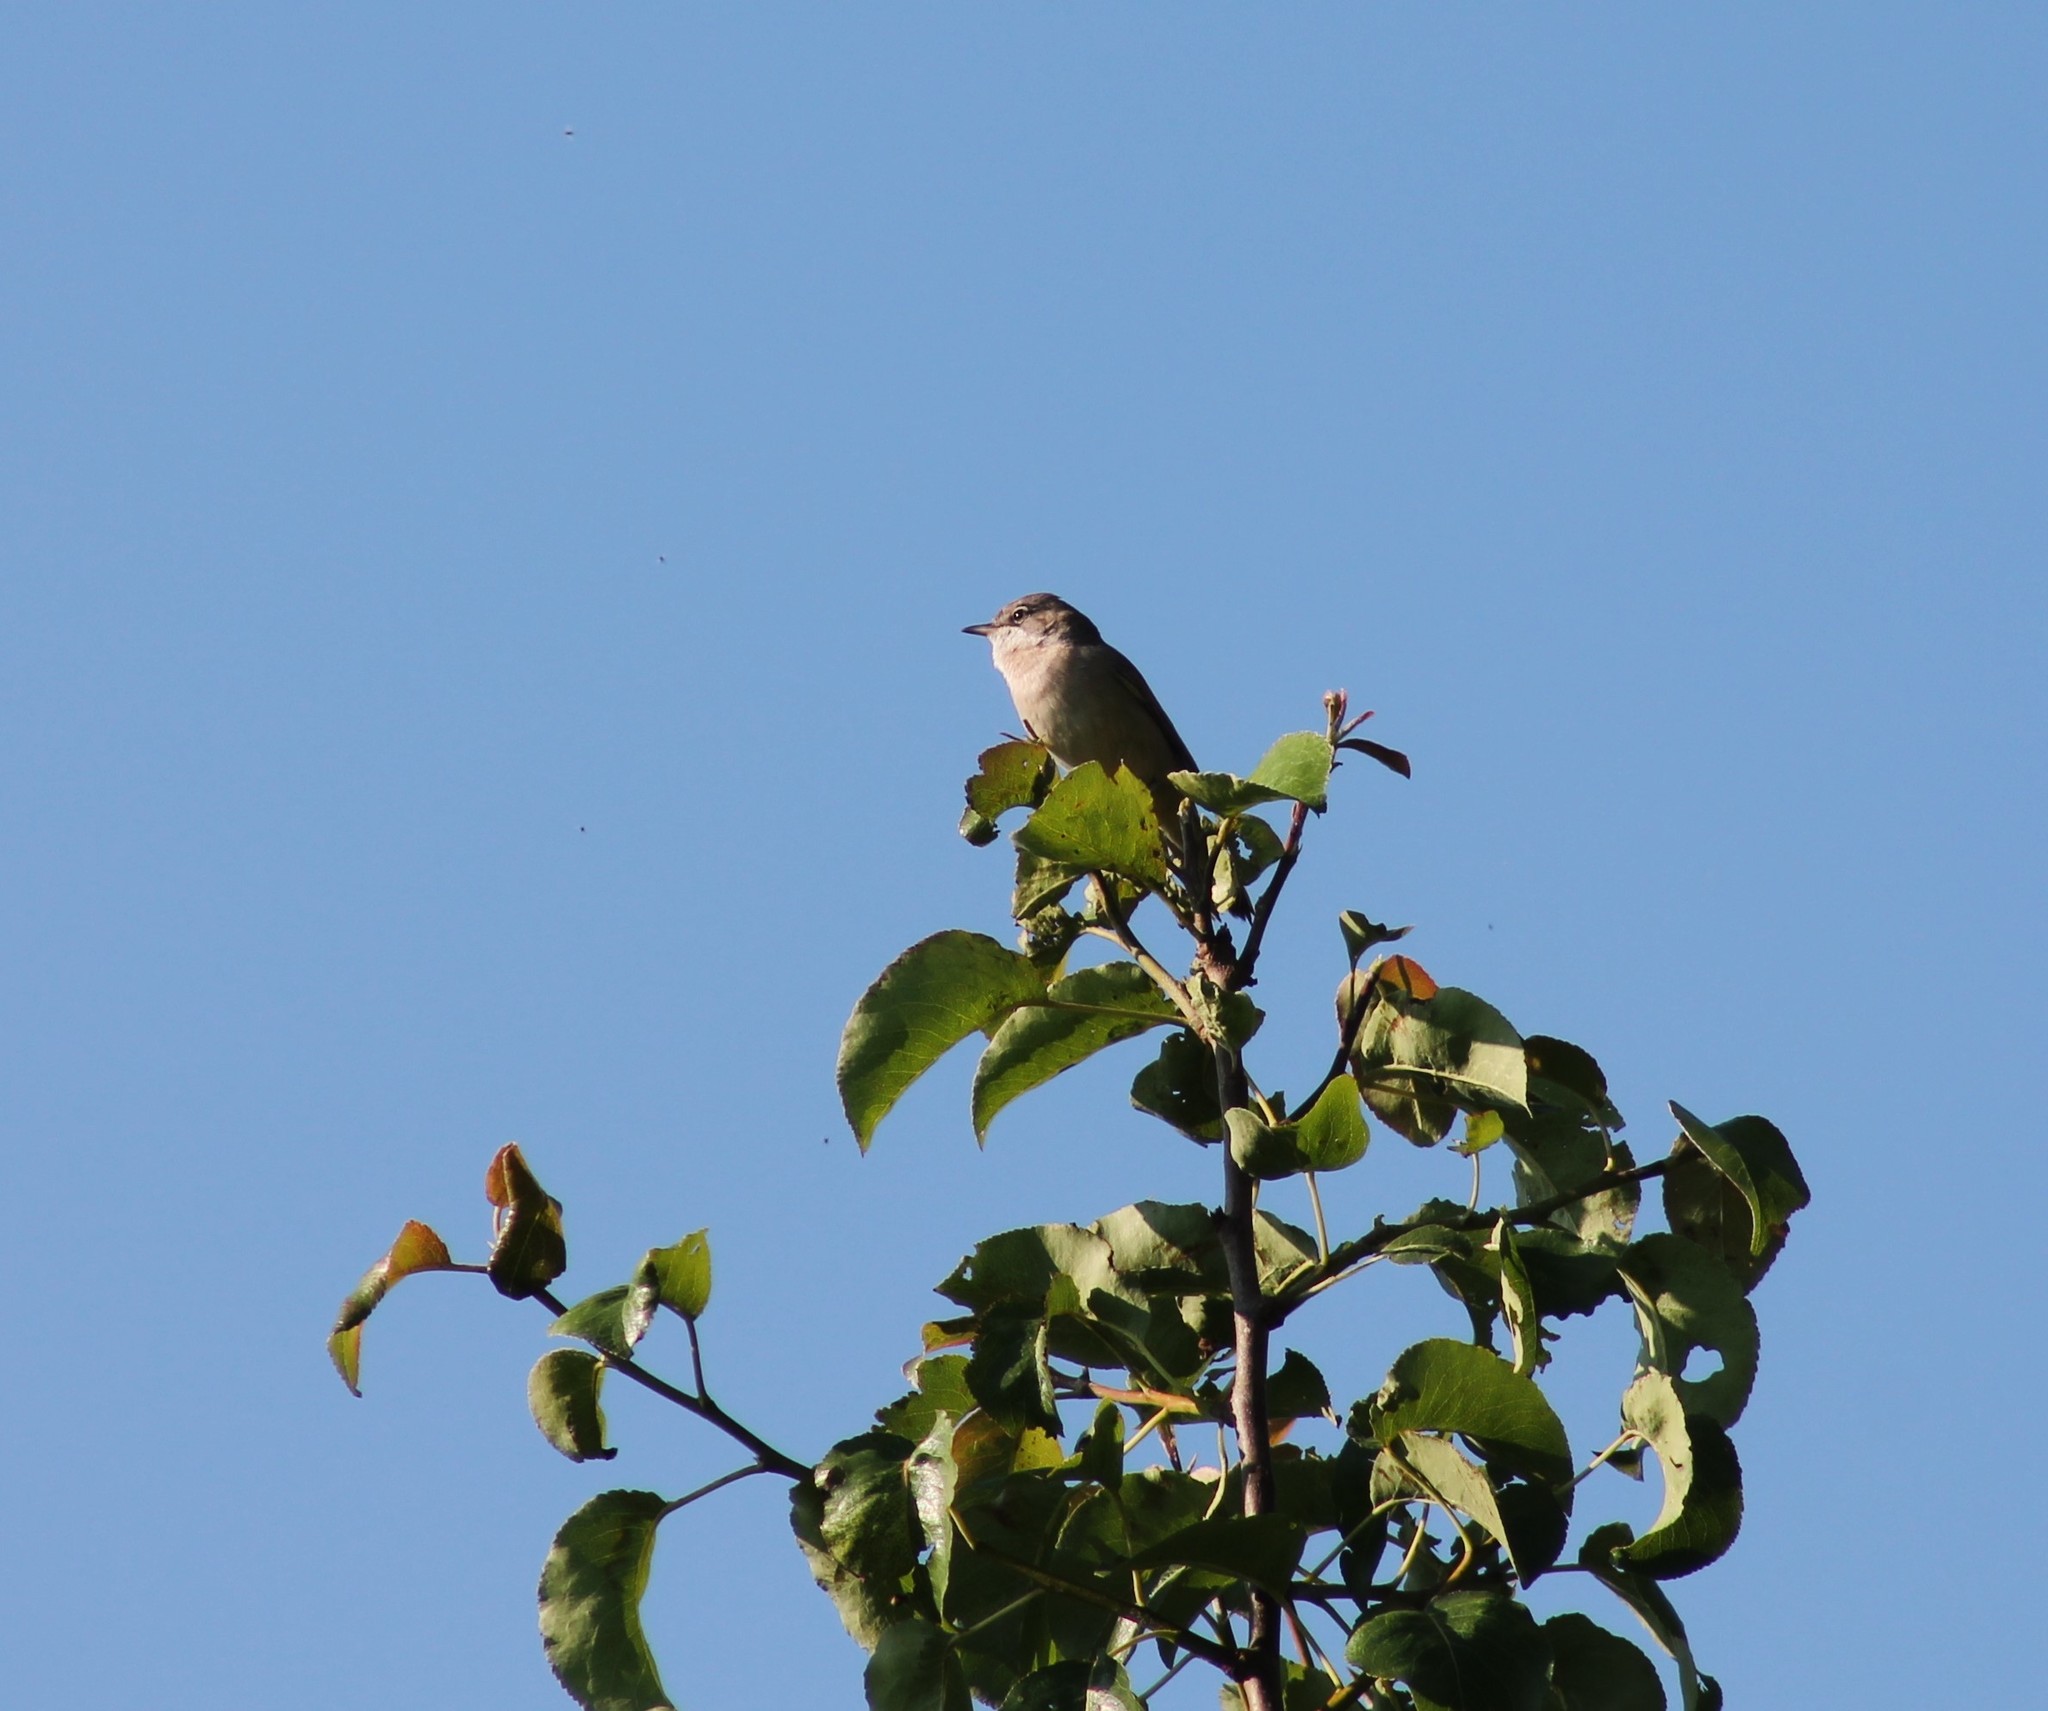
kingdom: Animalia
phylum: Chordata
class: Aves
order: Passeriformes
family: Sylviidae
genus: Sylvia
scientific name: Sylvia communis
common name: Common whitethroat
